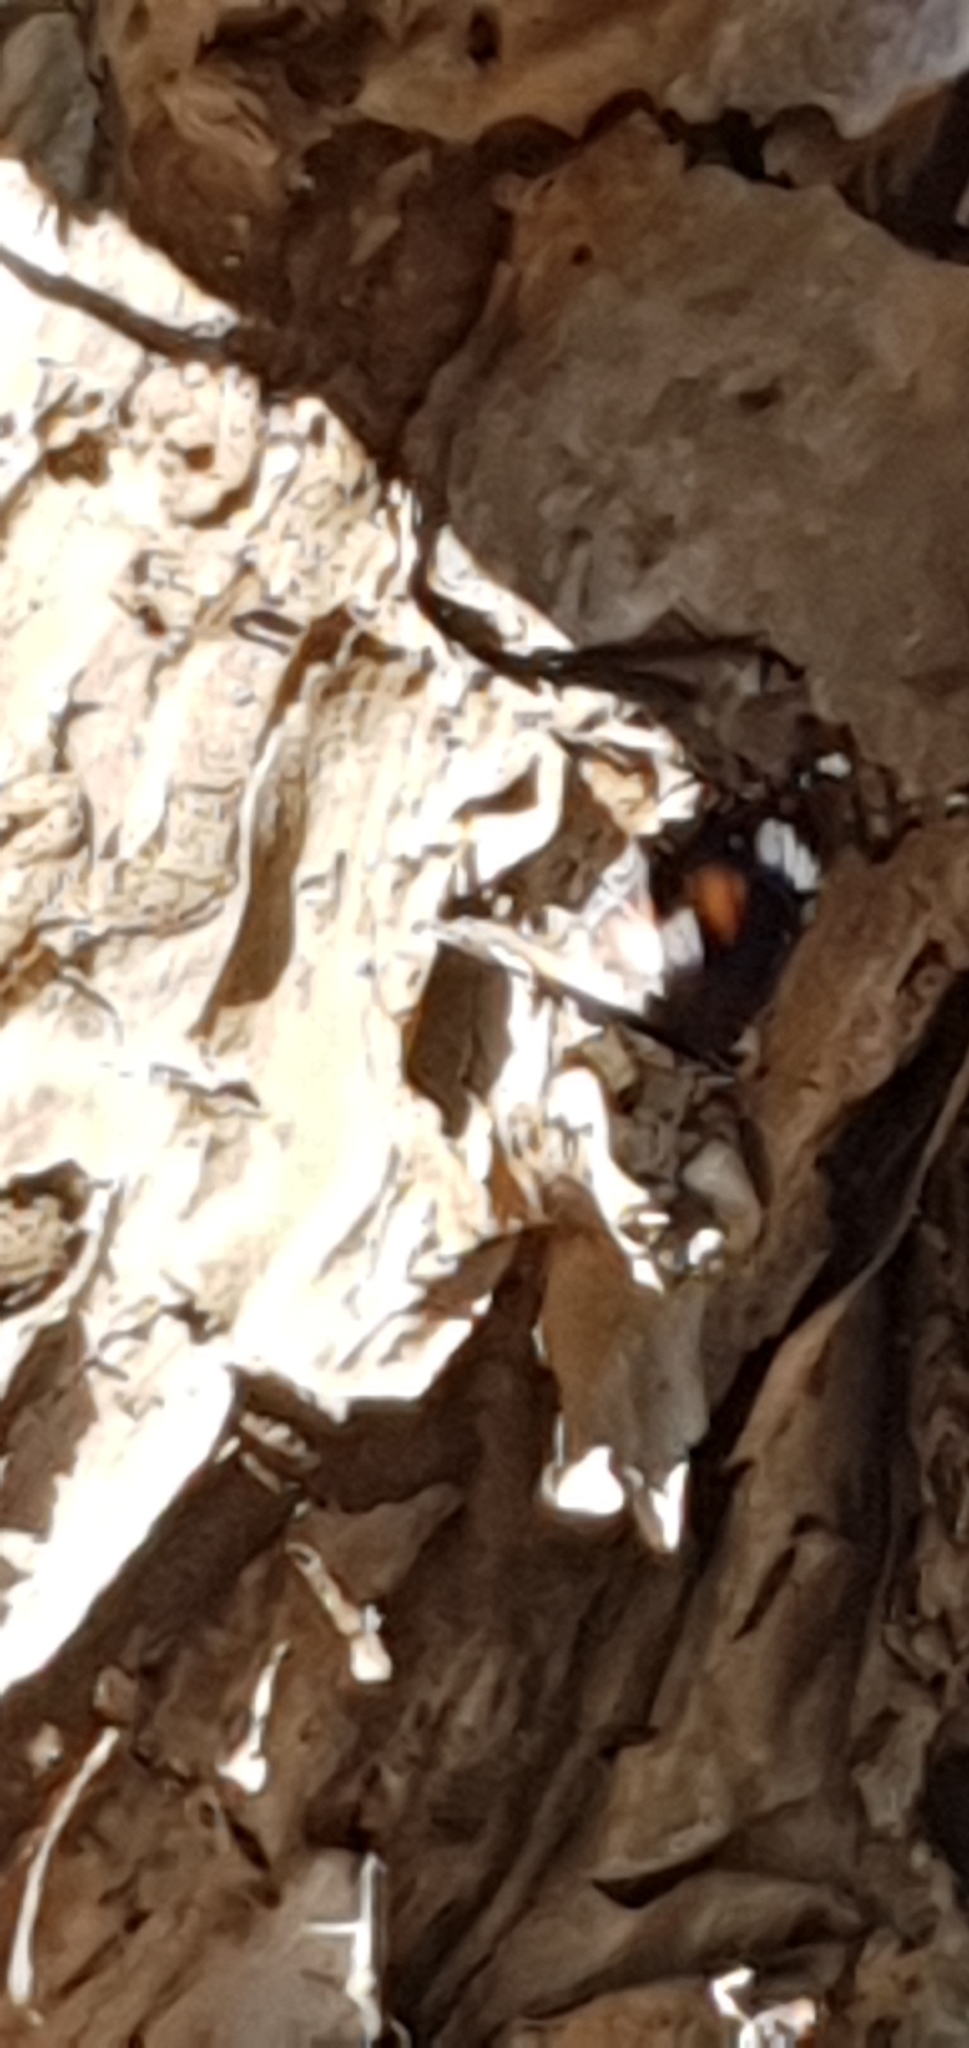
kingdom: Animalia
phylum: Arthropoda
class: Insecta
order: Lepidoptera
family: Nymphalidae
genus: Hypolimnas
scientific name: Hypolimnas bolina
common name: Great eggfly
